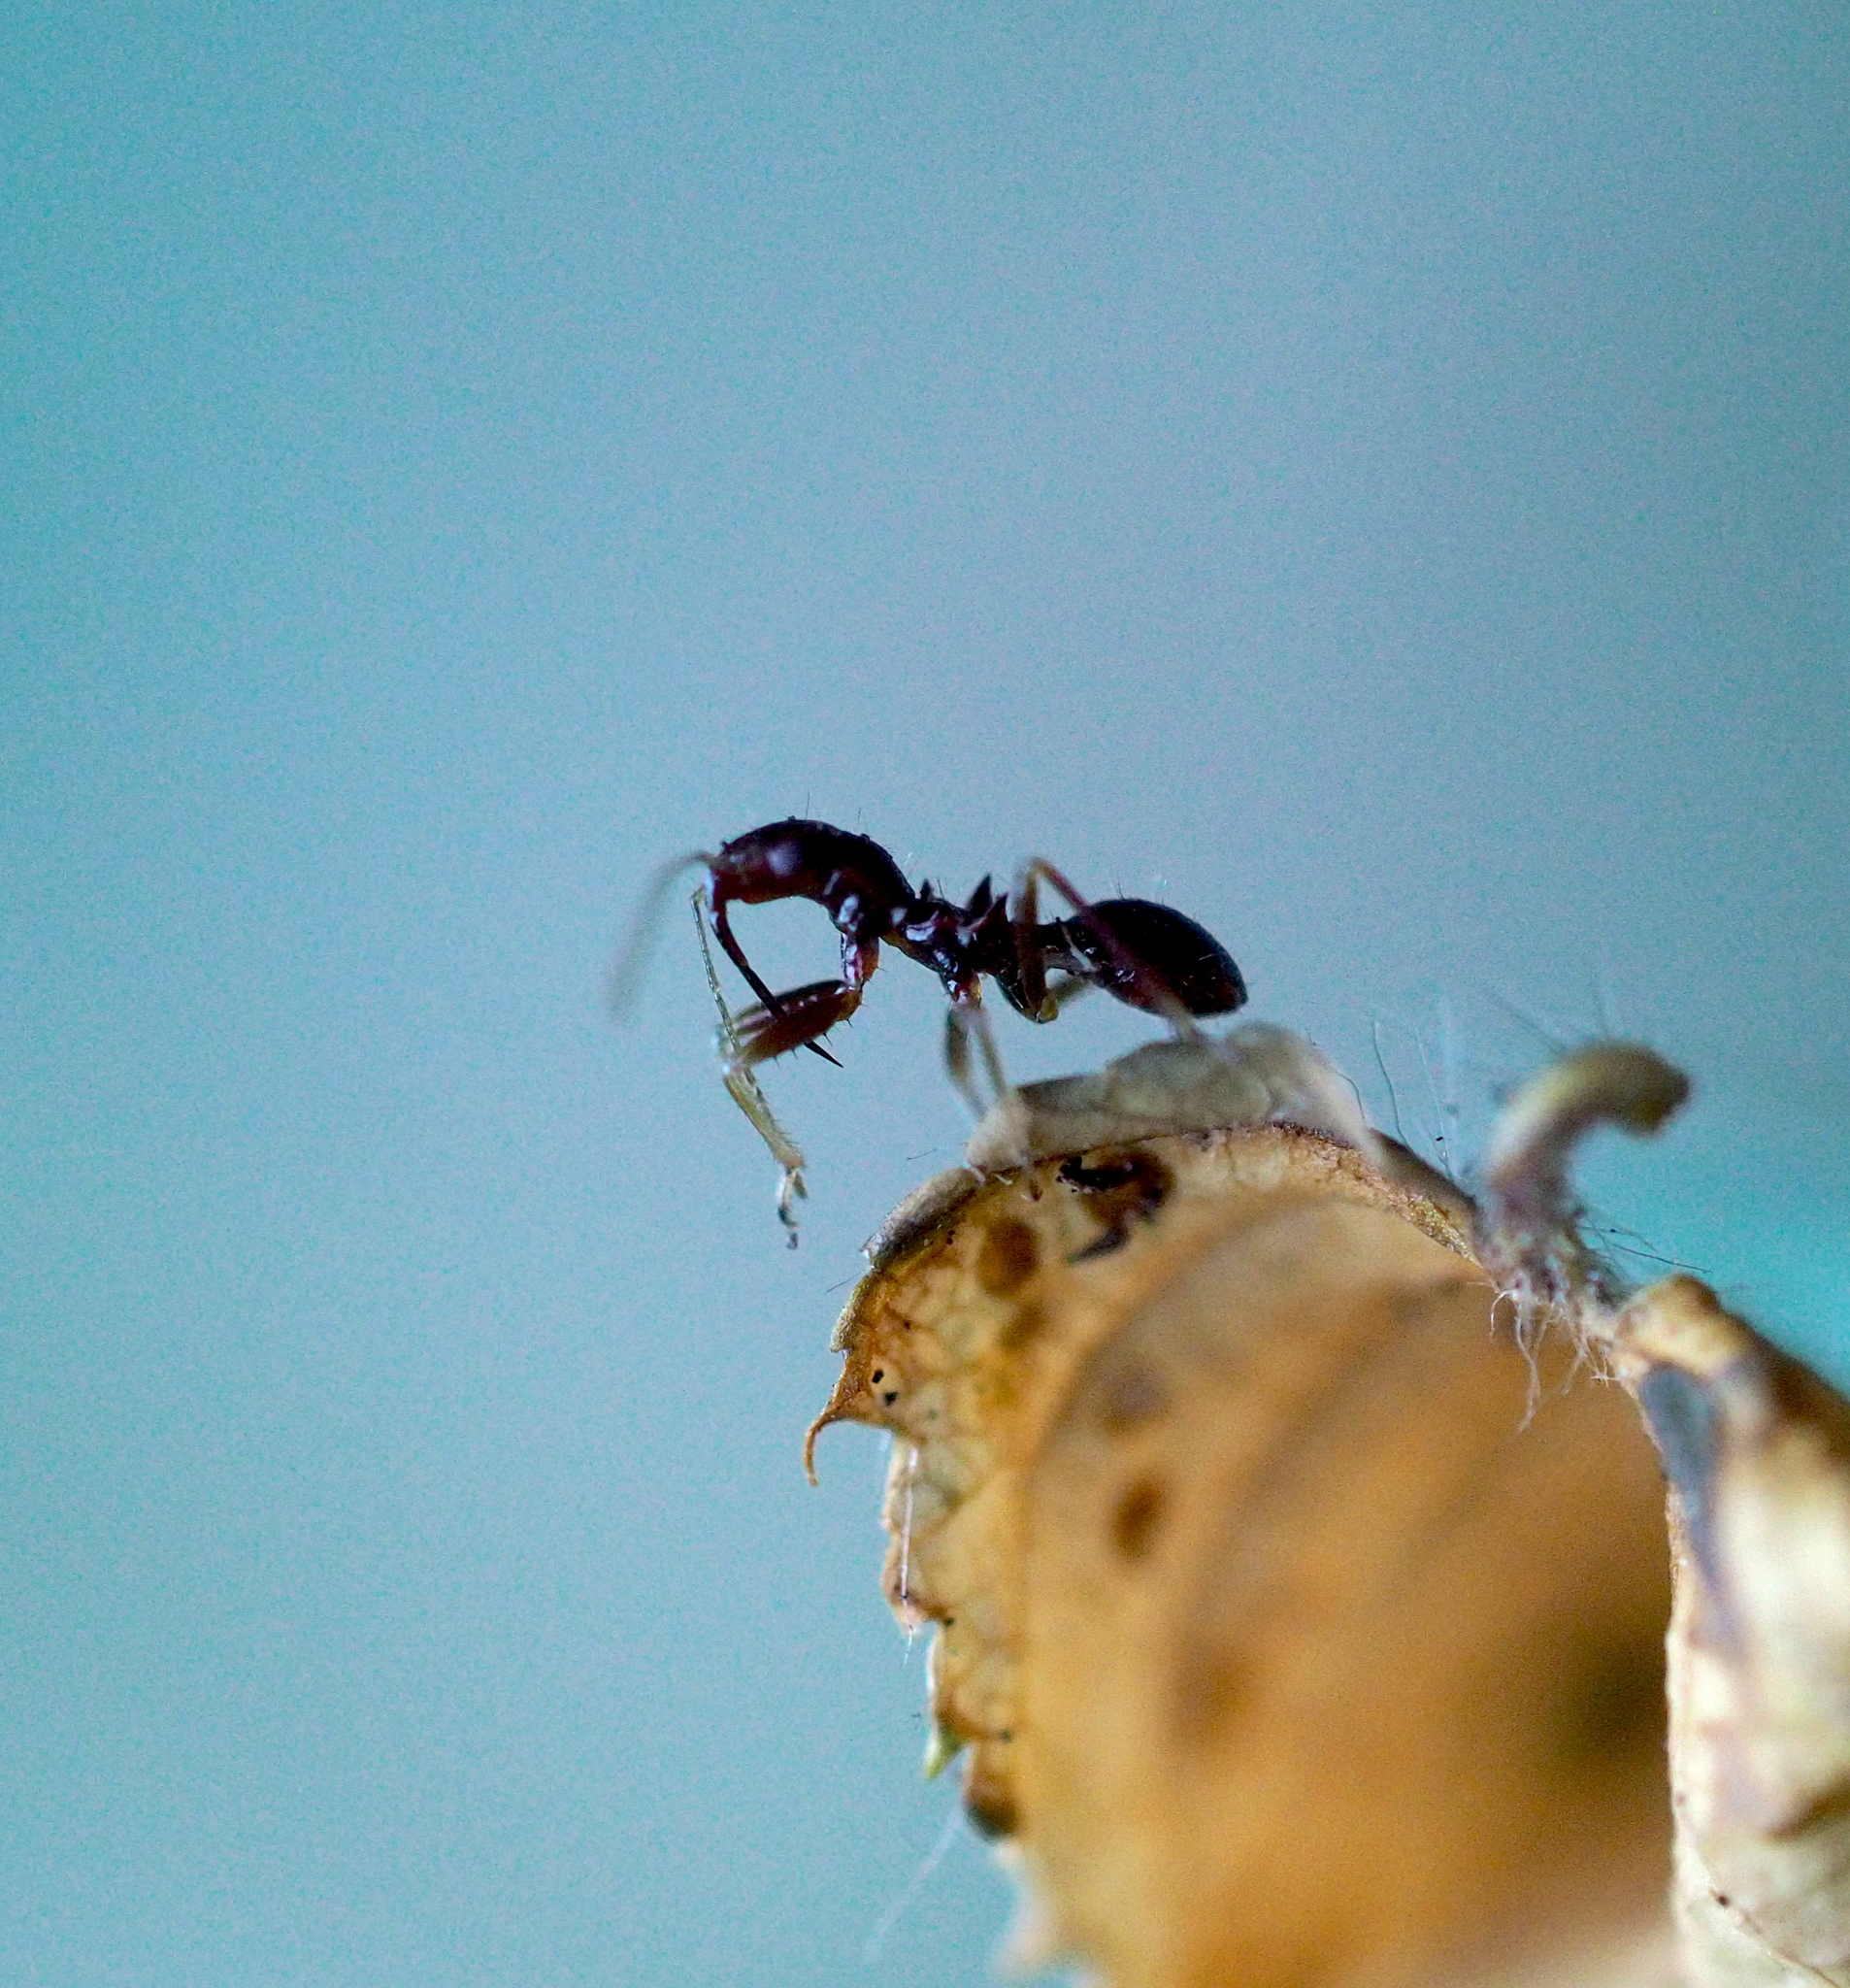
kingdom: Animalia
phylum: Arthropoda
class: Insecta
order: Hemiptera
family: Nabidae
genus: Himacerus
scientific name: Himacerus mirmicoides
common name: Ant damsel bug
